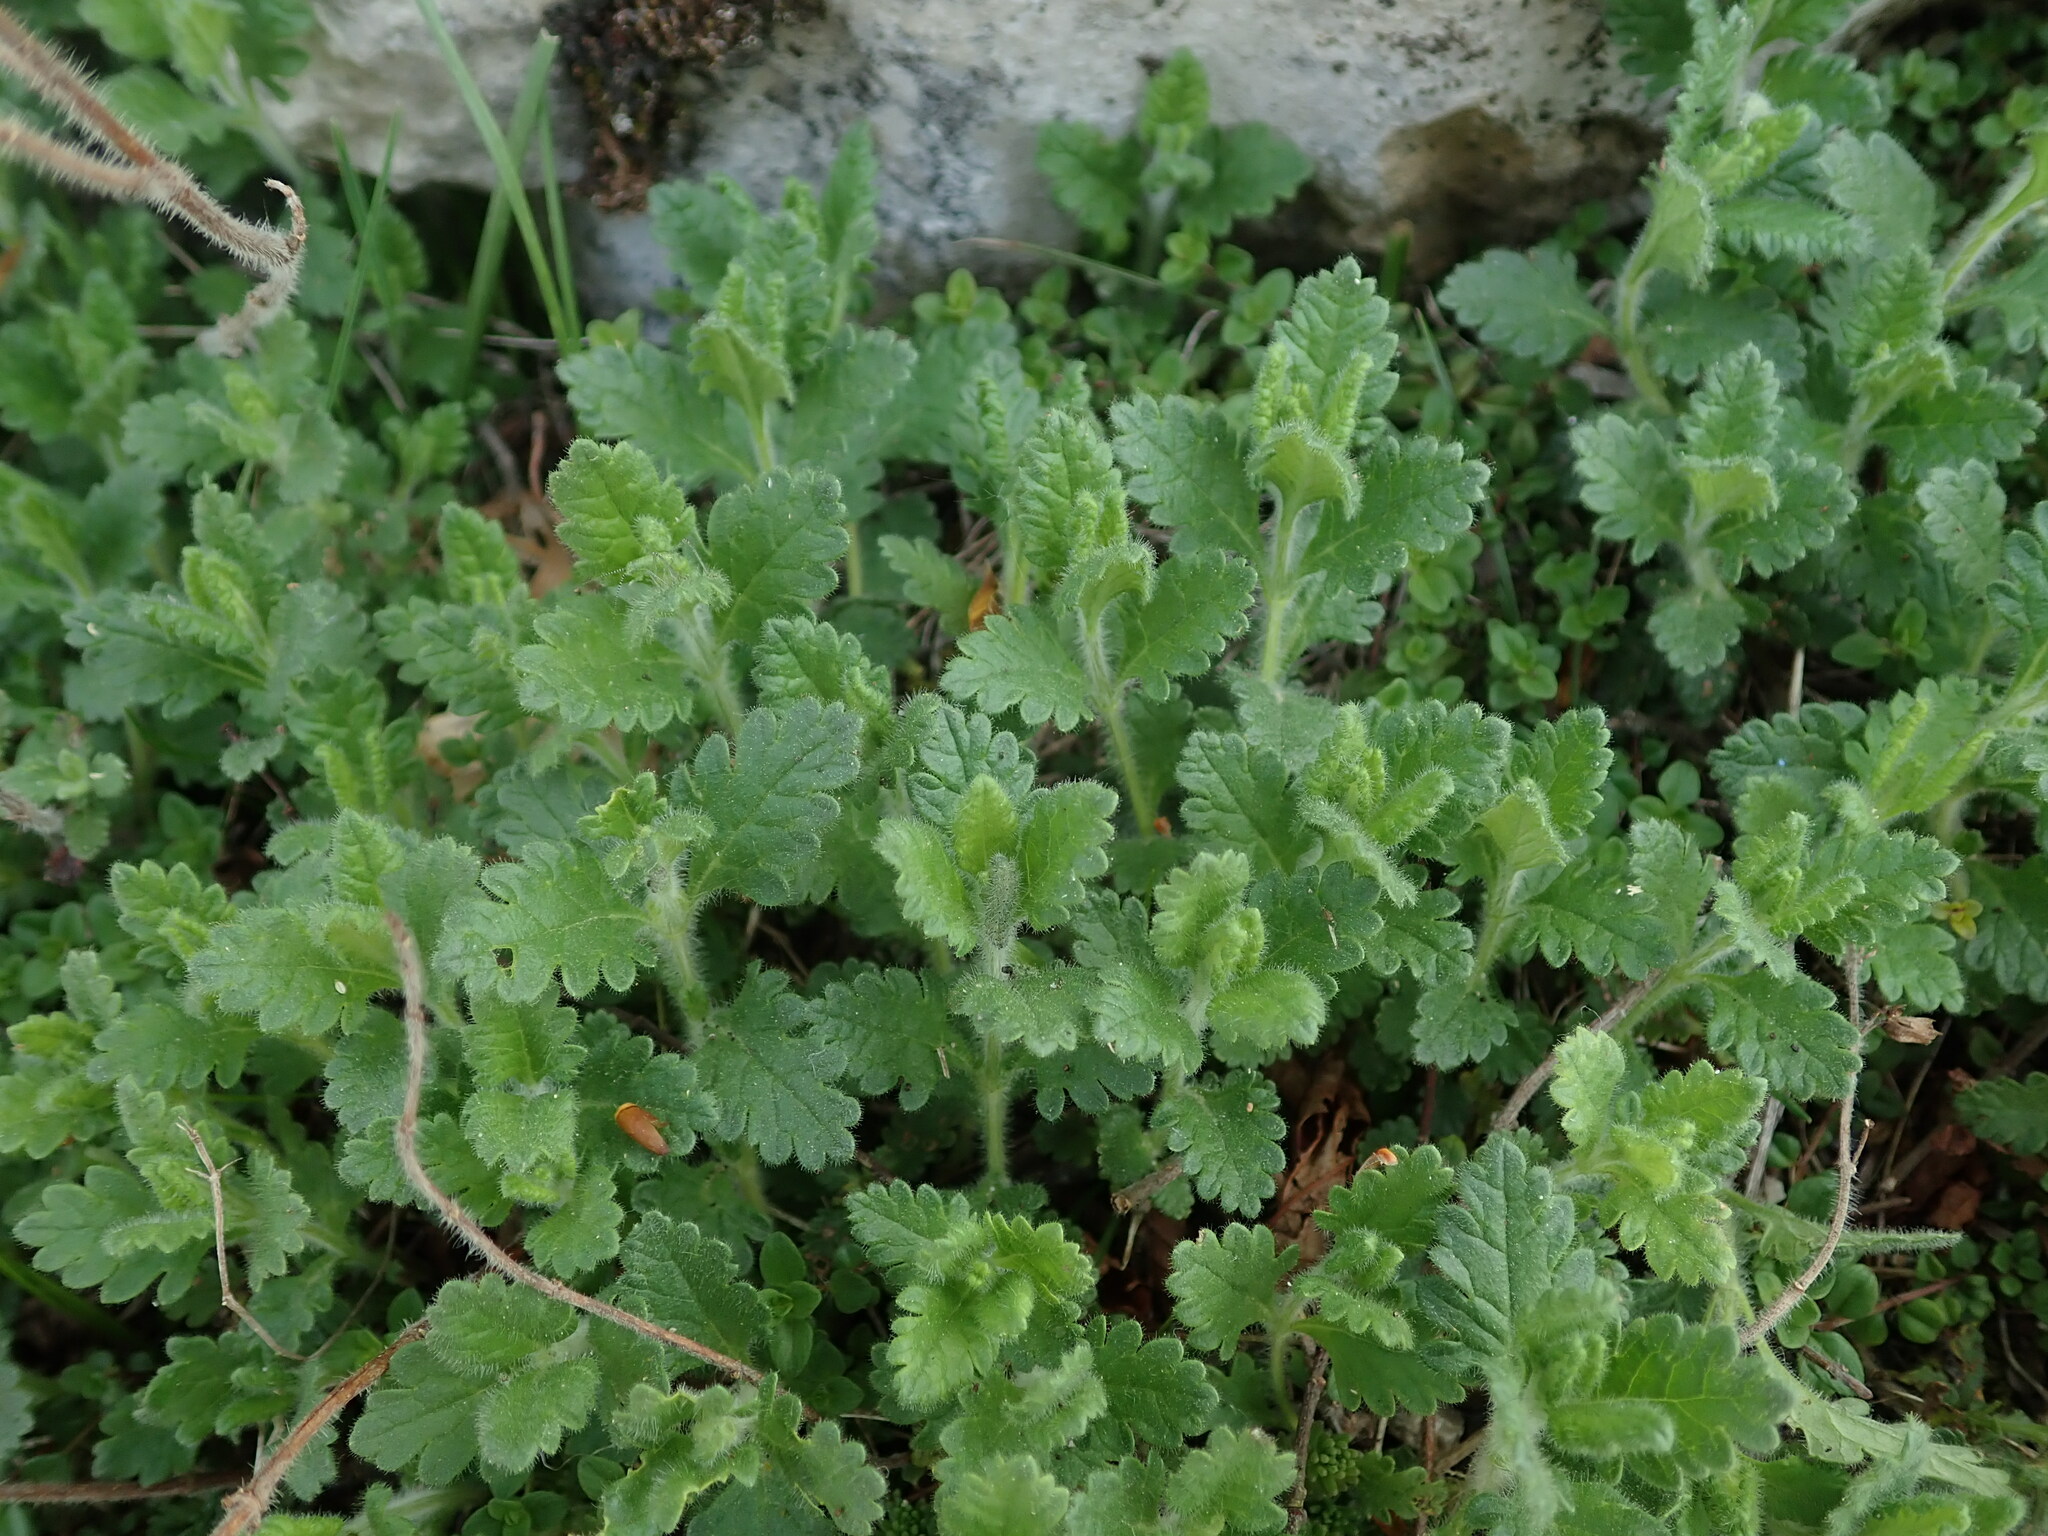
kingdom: Plantae
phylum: Tracheophyta
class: Magnoliopsida
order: Lamiales
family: Lamiaceae
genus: Teucrium
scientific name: Teucrium chamaedrys
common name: Wall germander
